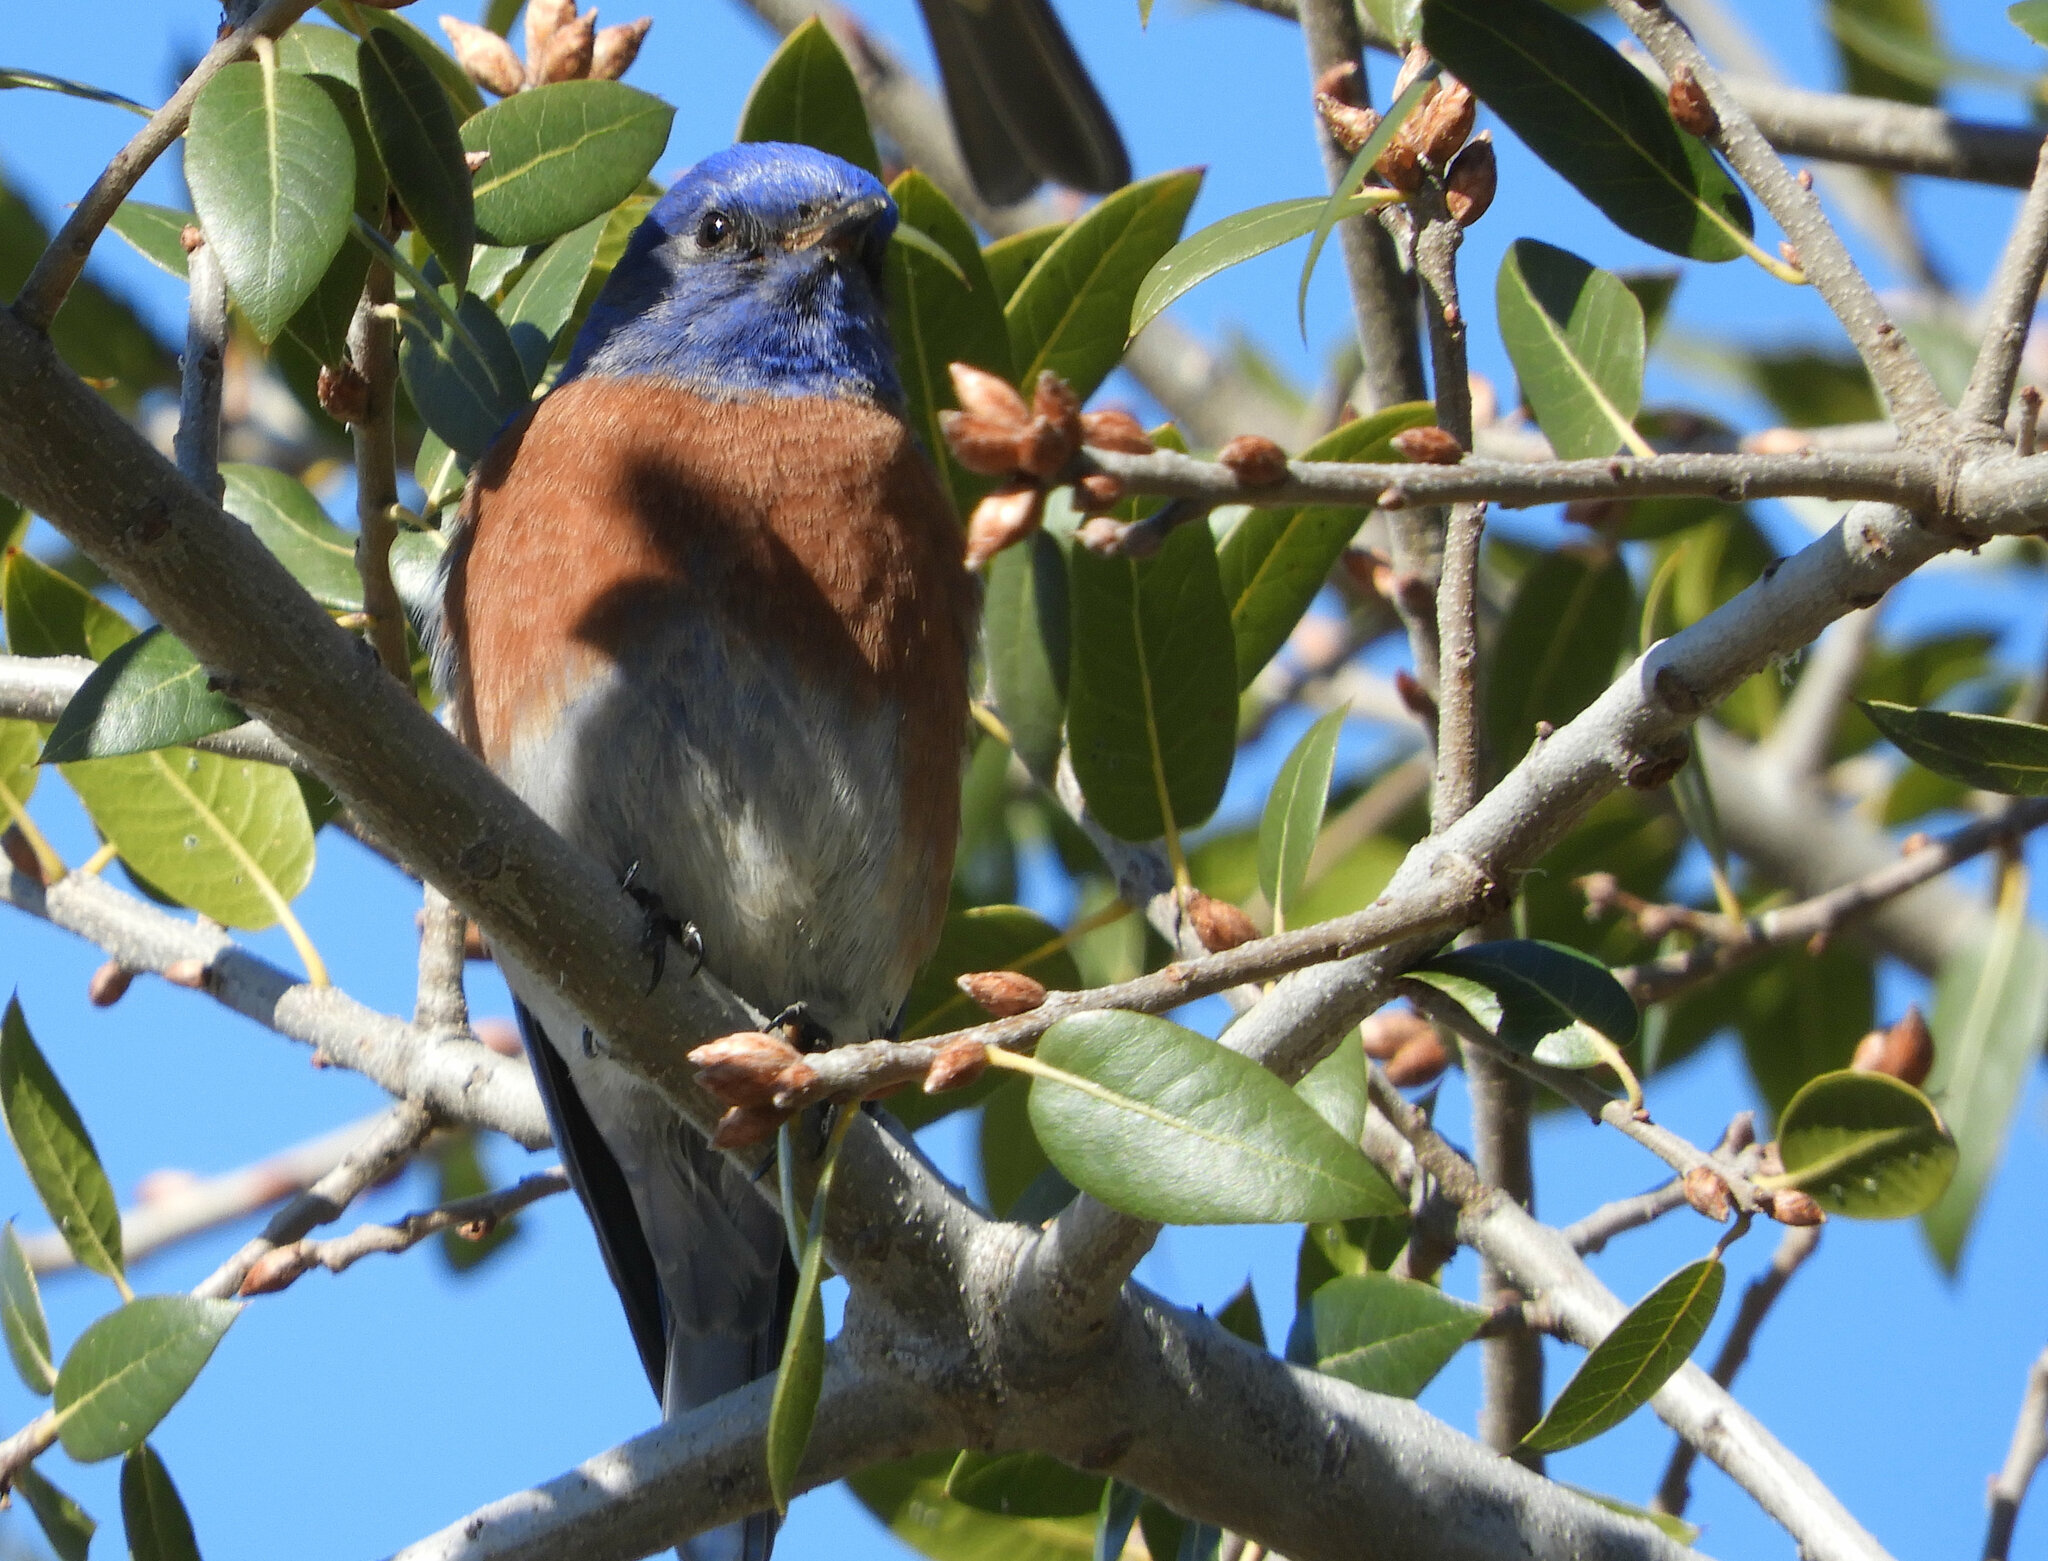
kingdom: Animalia
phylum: Chordata
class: Aves
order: Passeriformes
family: Turdidae
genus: Sialia
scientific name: Sialia mexicana
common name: Western bluebird
